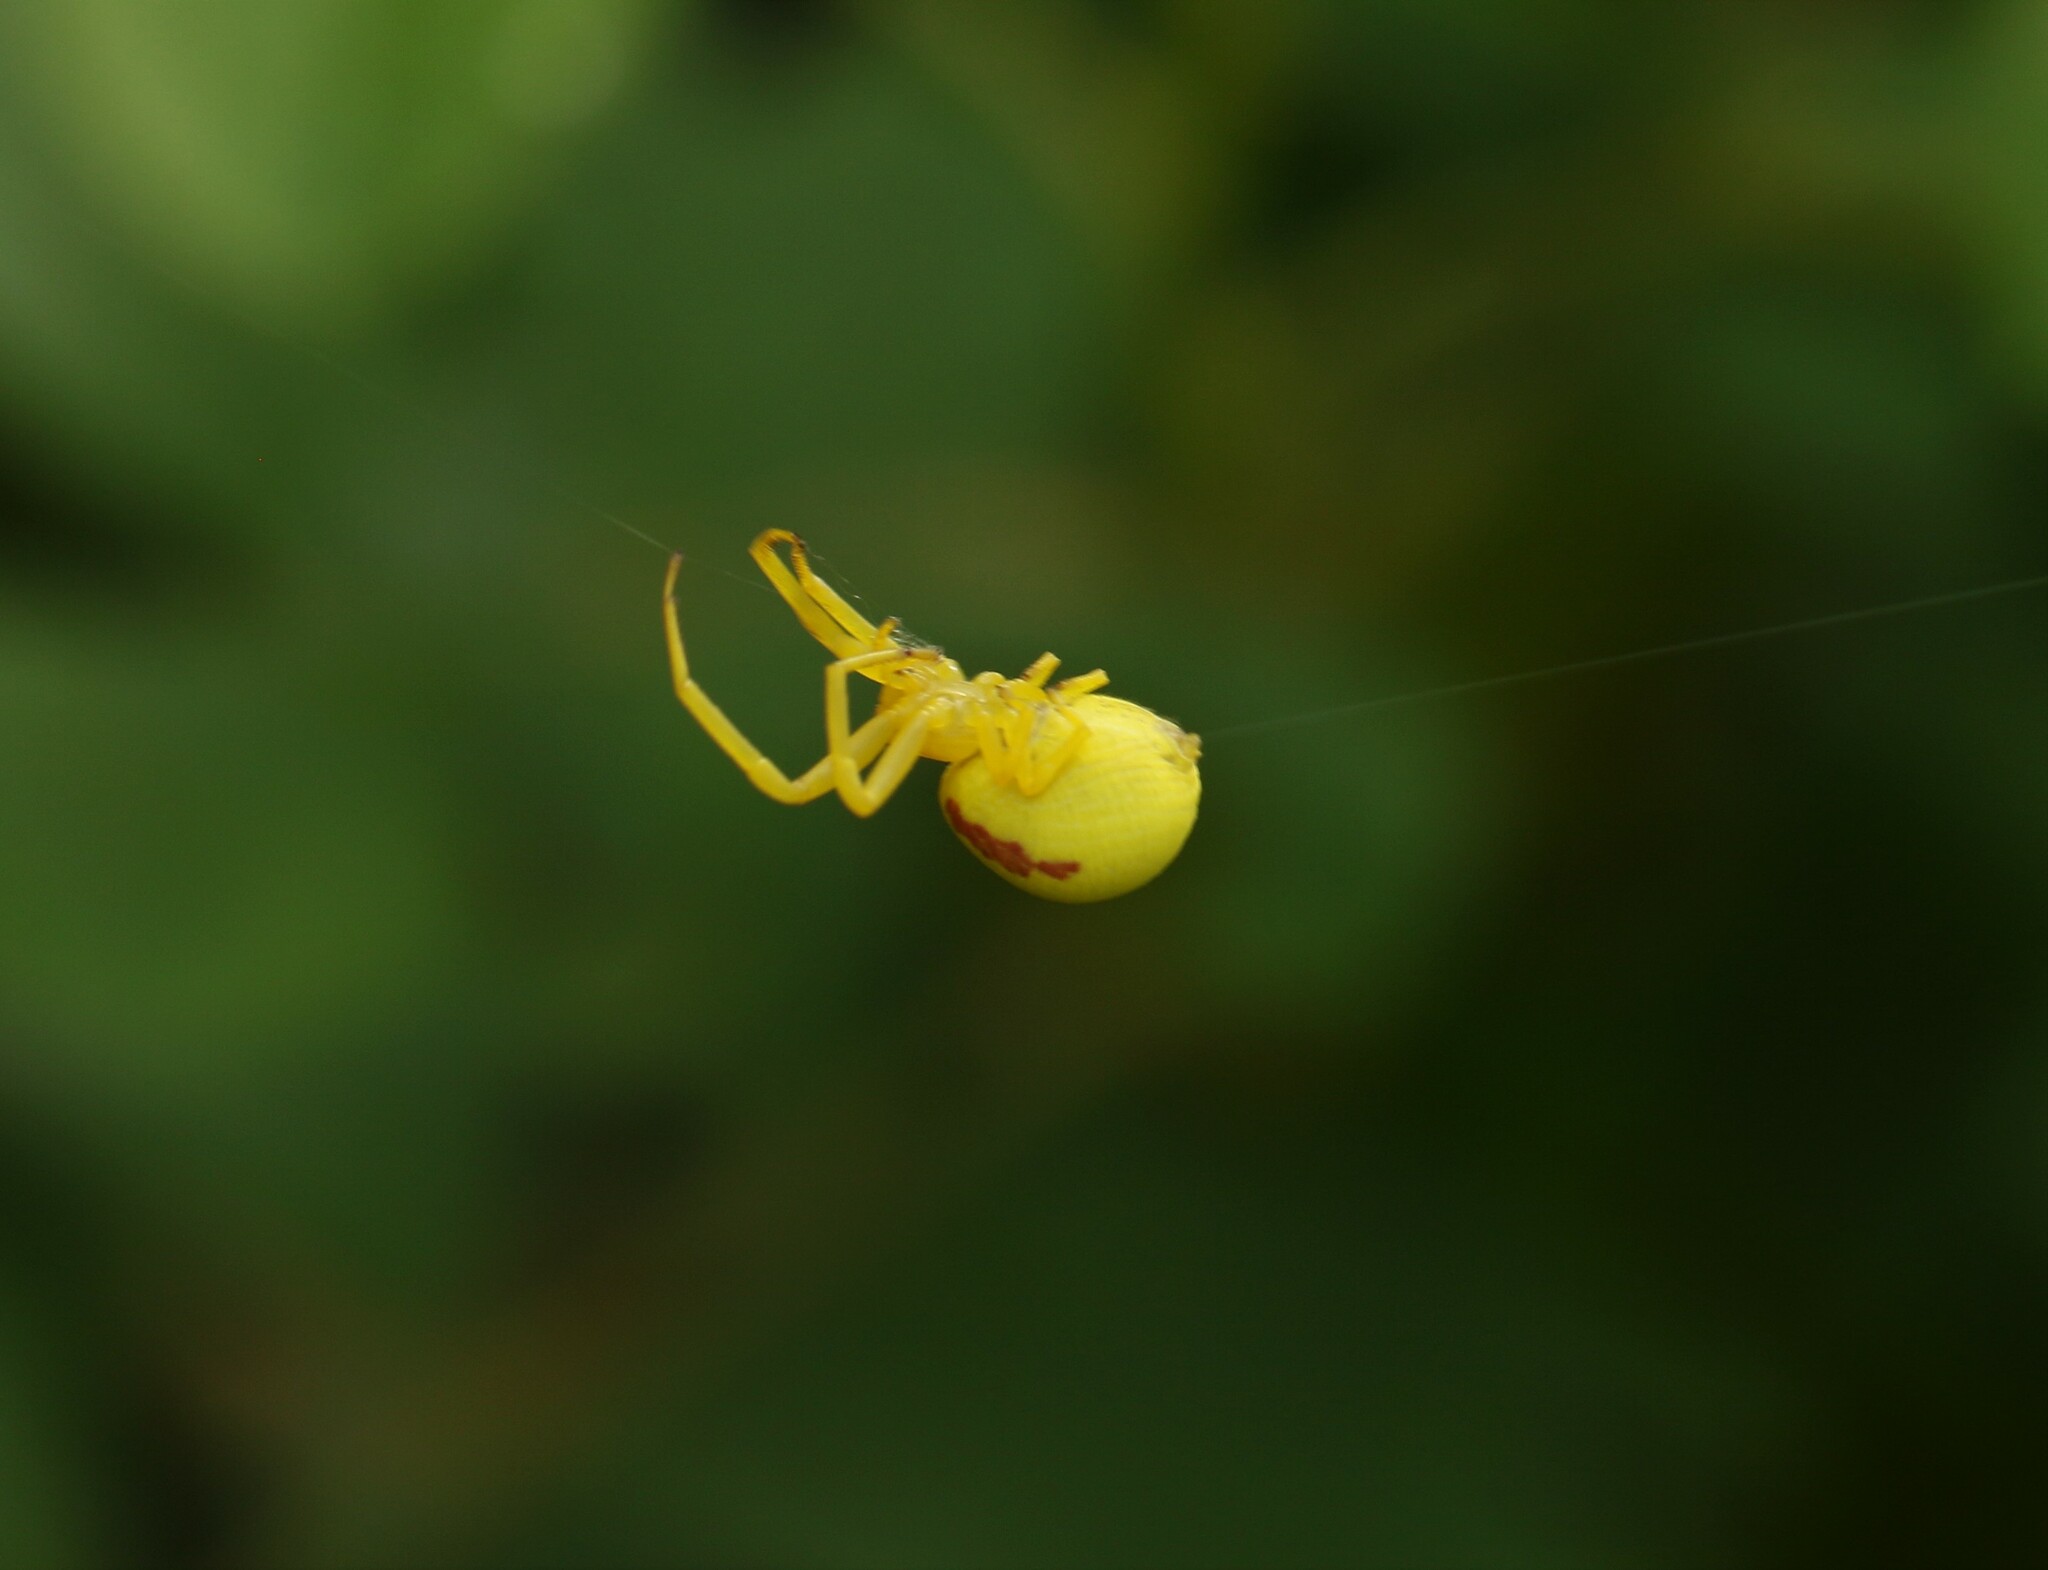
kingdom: Animalia
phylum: Arthropoda
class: Arachnida
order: Araneae
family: Thomisidae
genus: Misumena
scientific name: Misumena vatia
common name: Goldenrod crab spider
